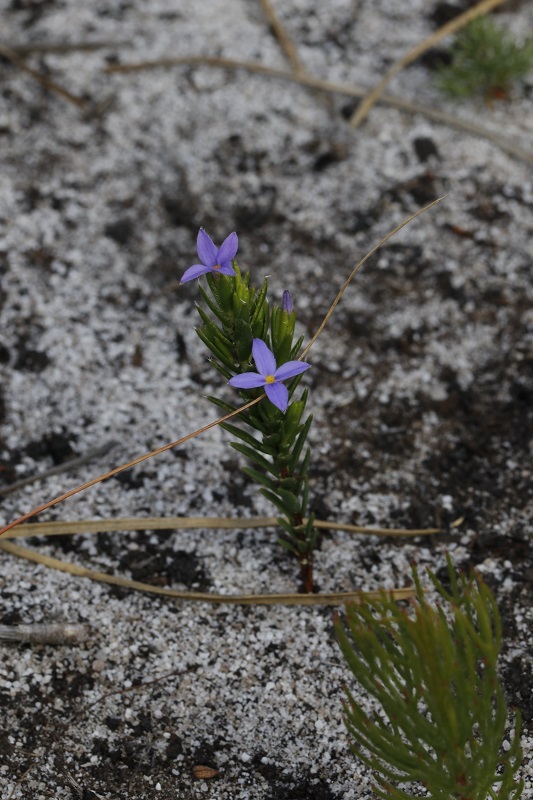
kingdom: Plantae
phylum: Tracheophyta
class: Magnoliopsida
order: Malvales
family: Thymelaeaceae
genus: Gnidia
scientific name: Gnidia penicillata
